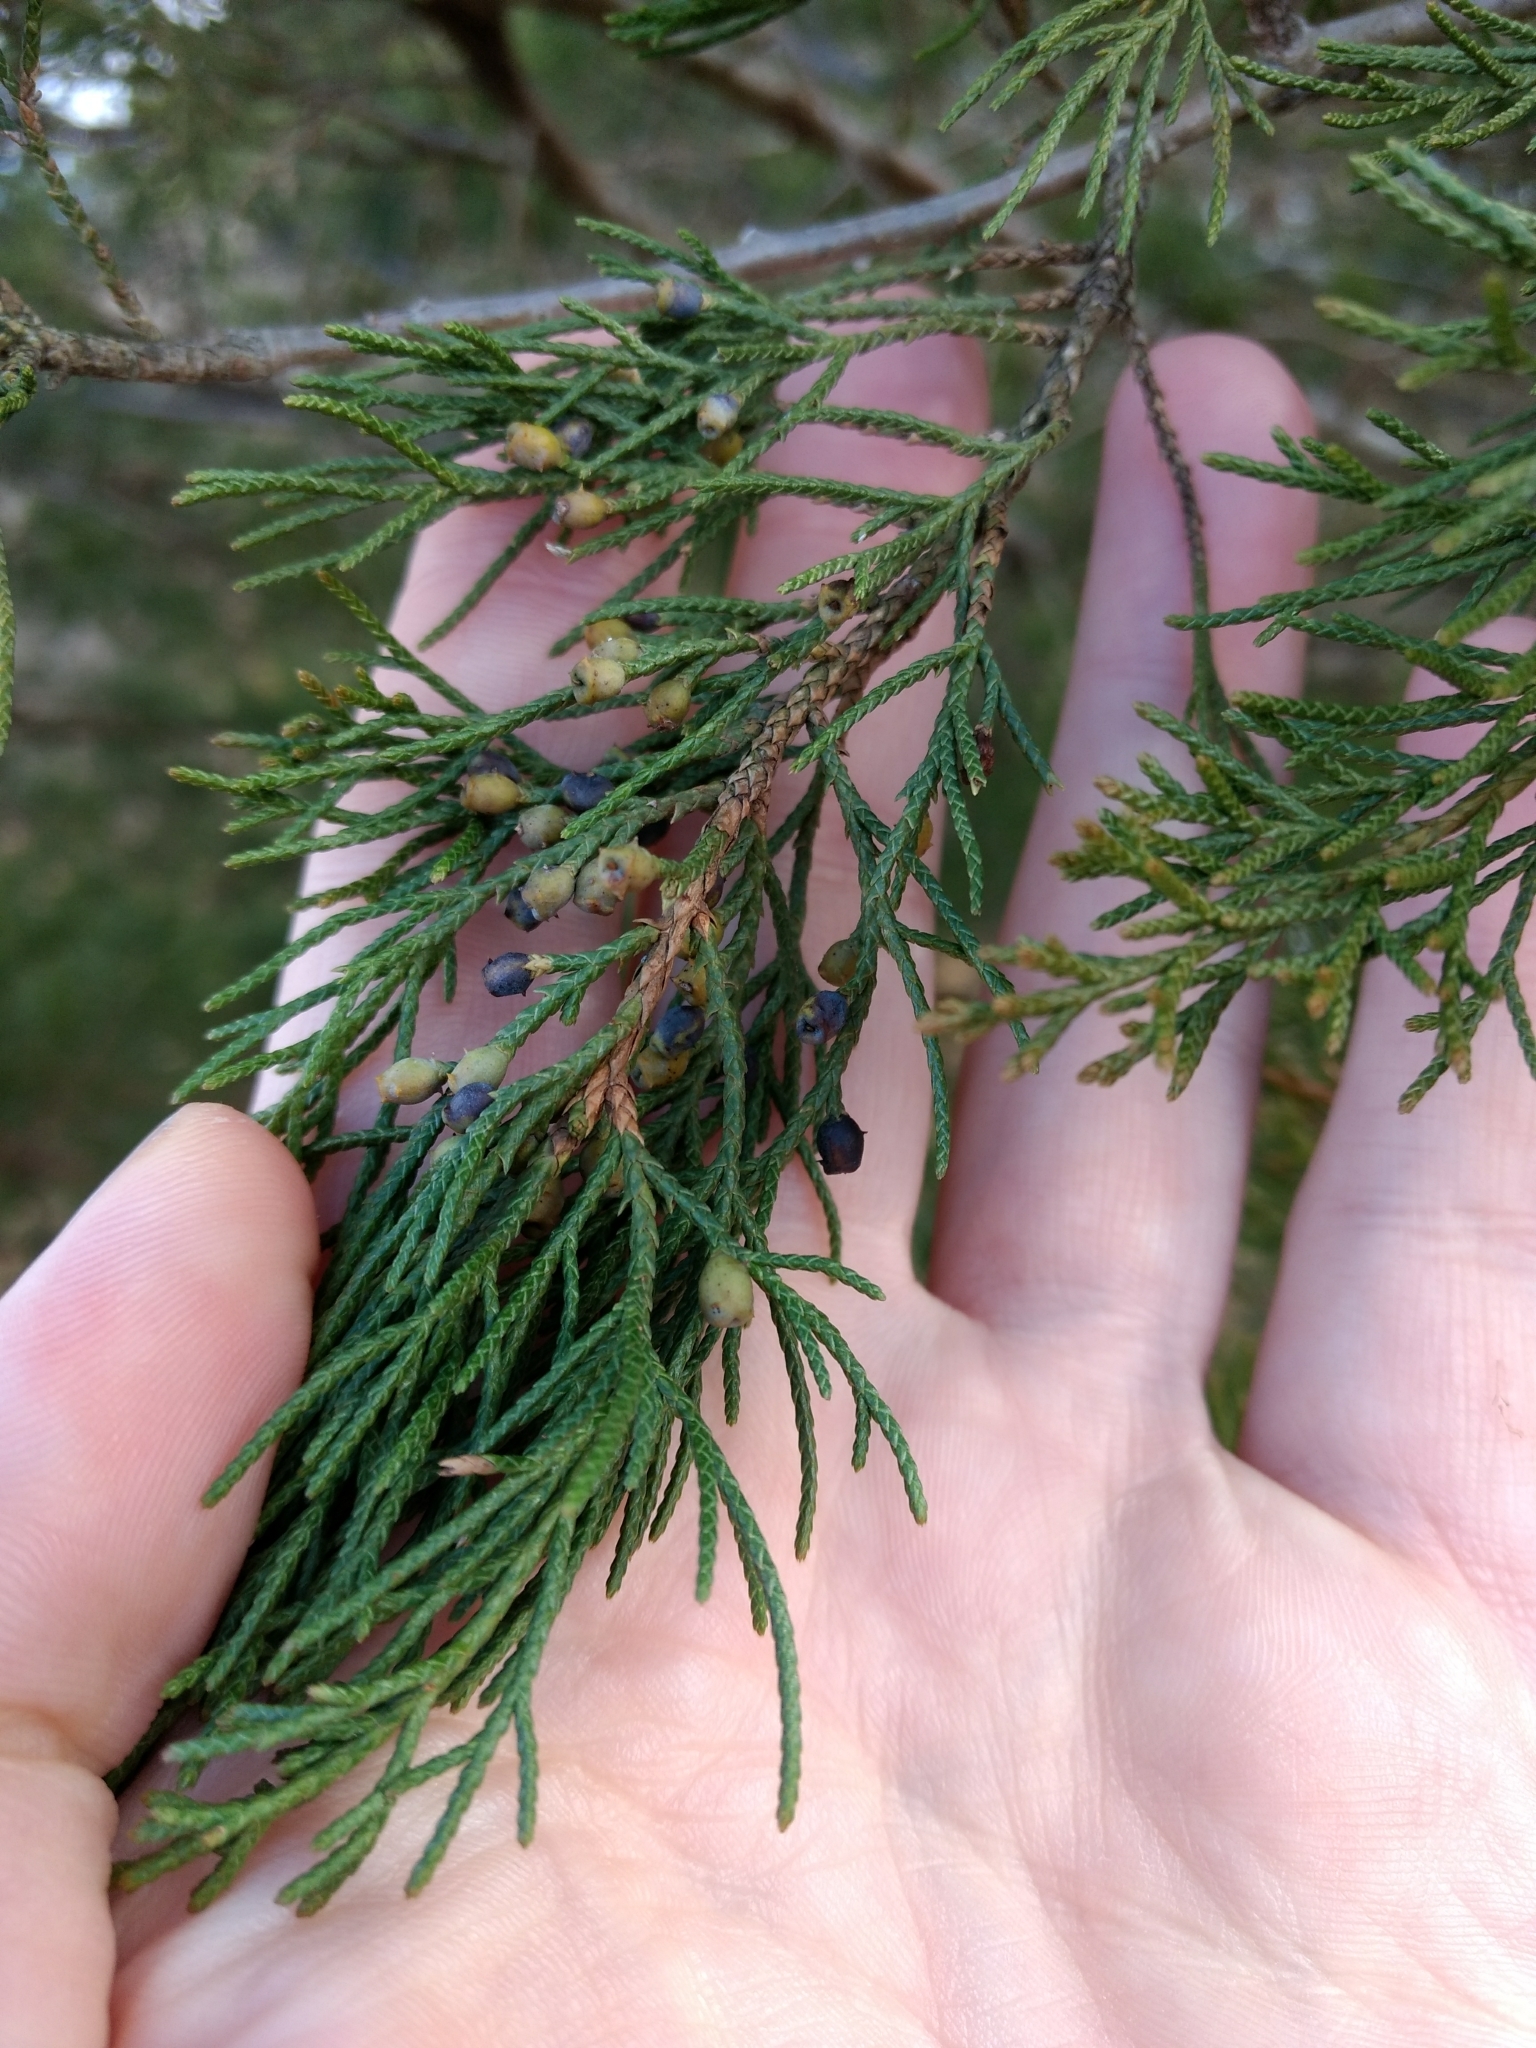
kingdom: Plantae
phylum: Tracheophyta
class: Pinopsida
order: Pinales
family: Cupressaceae
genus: Juniperus
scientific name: Juniperus virginiana
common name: Red juniper
